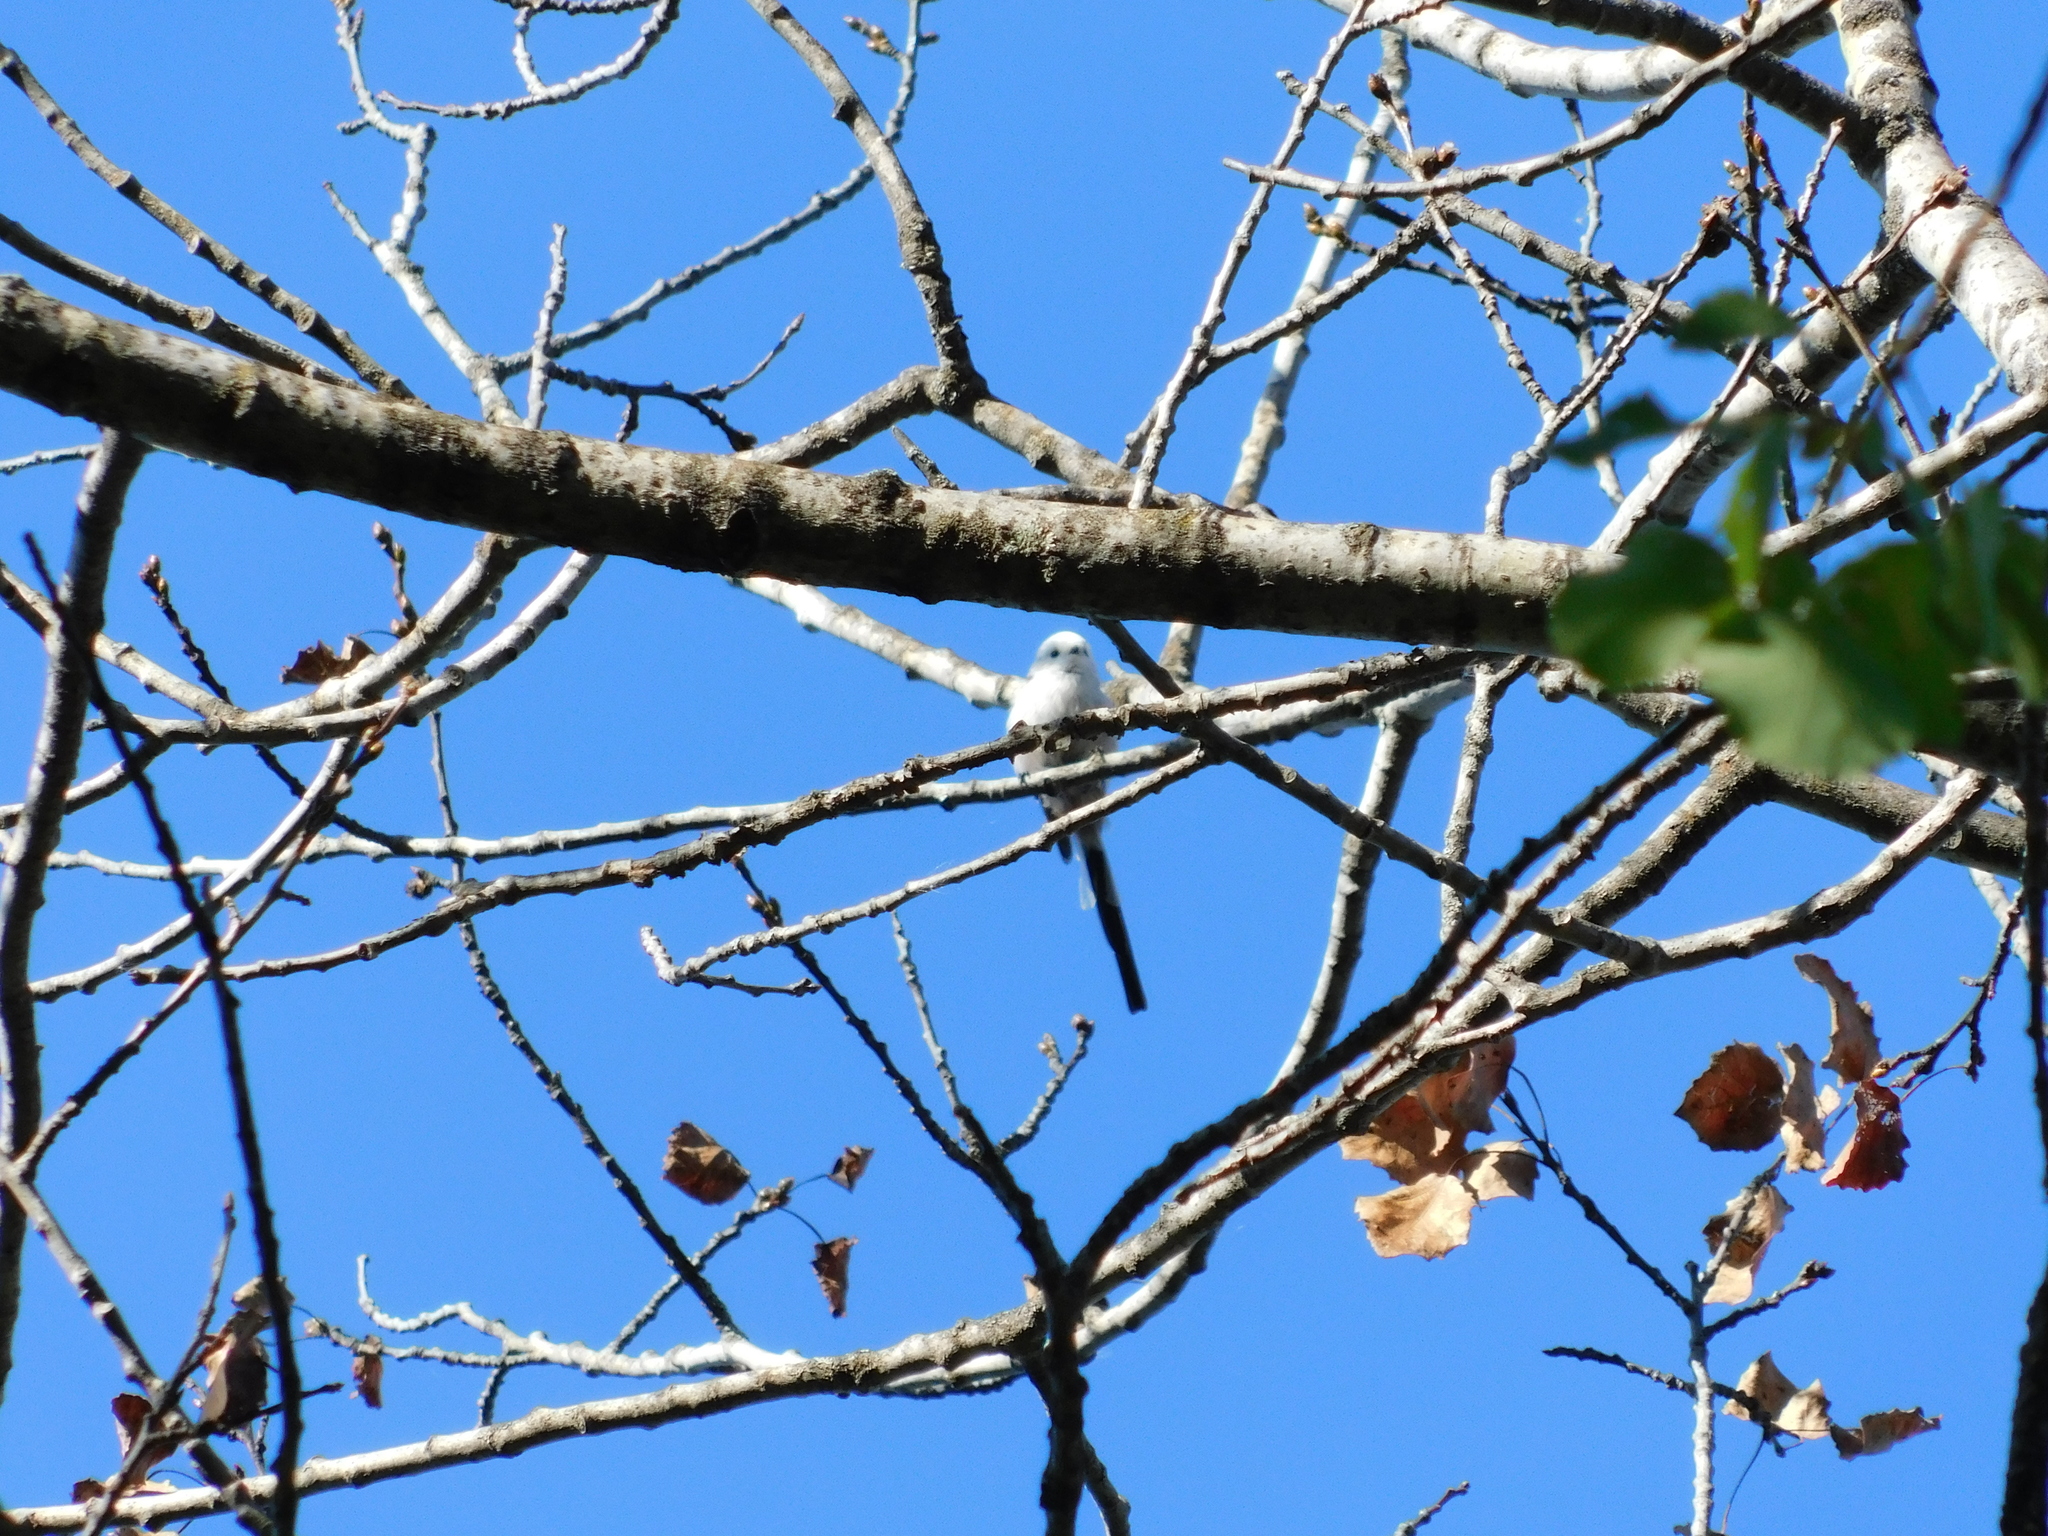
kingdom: Animalia
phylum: Chordata
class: Aves
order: Passeriformes
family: Aegithalidae
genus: Aegithalos
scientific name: Aegithalos caudatus
